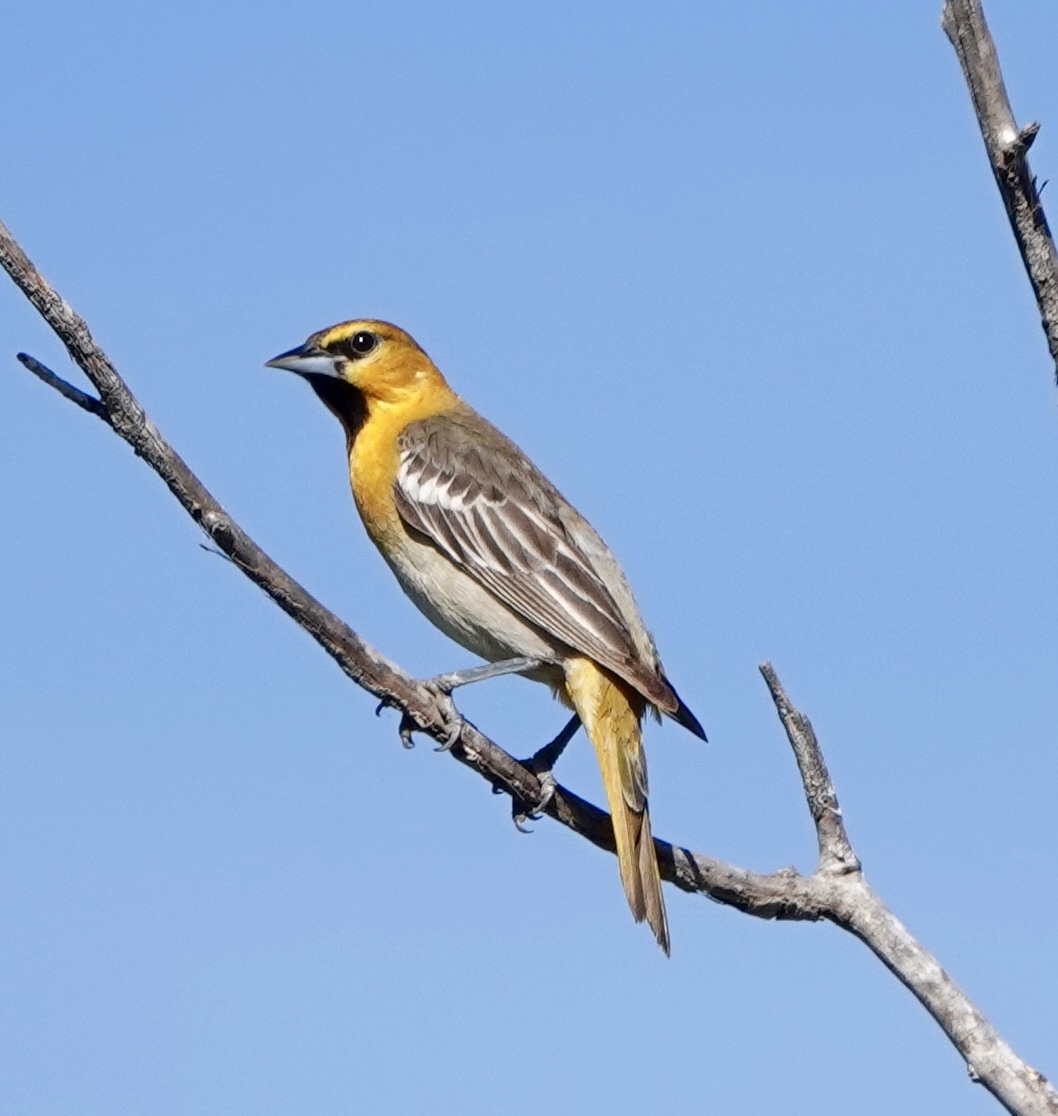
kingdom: Animalia
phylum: Chordata
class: Aves
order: Passeriformes
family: Icteridae
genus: Icterus
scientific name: Icterus bullockii
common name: Bullock's oriole
